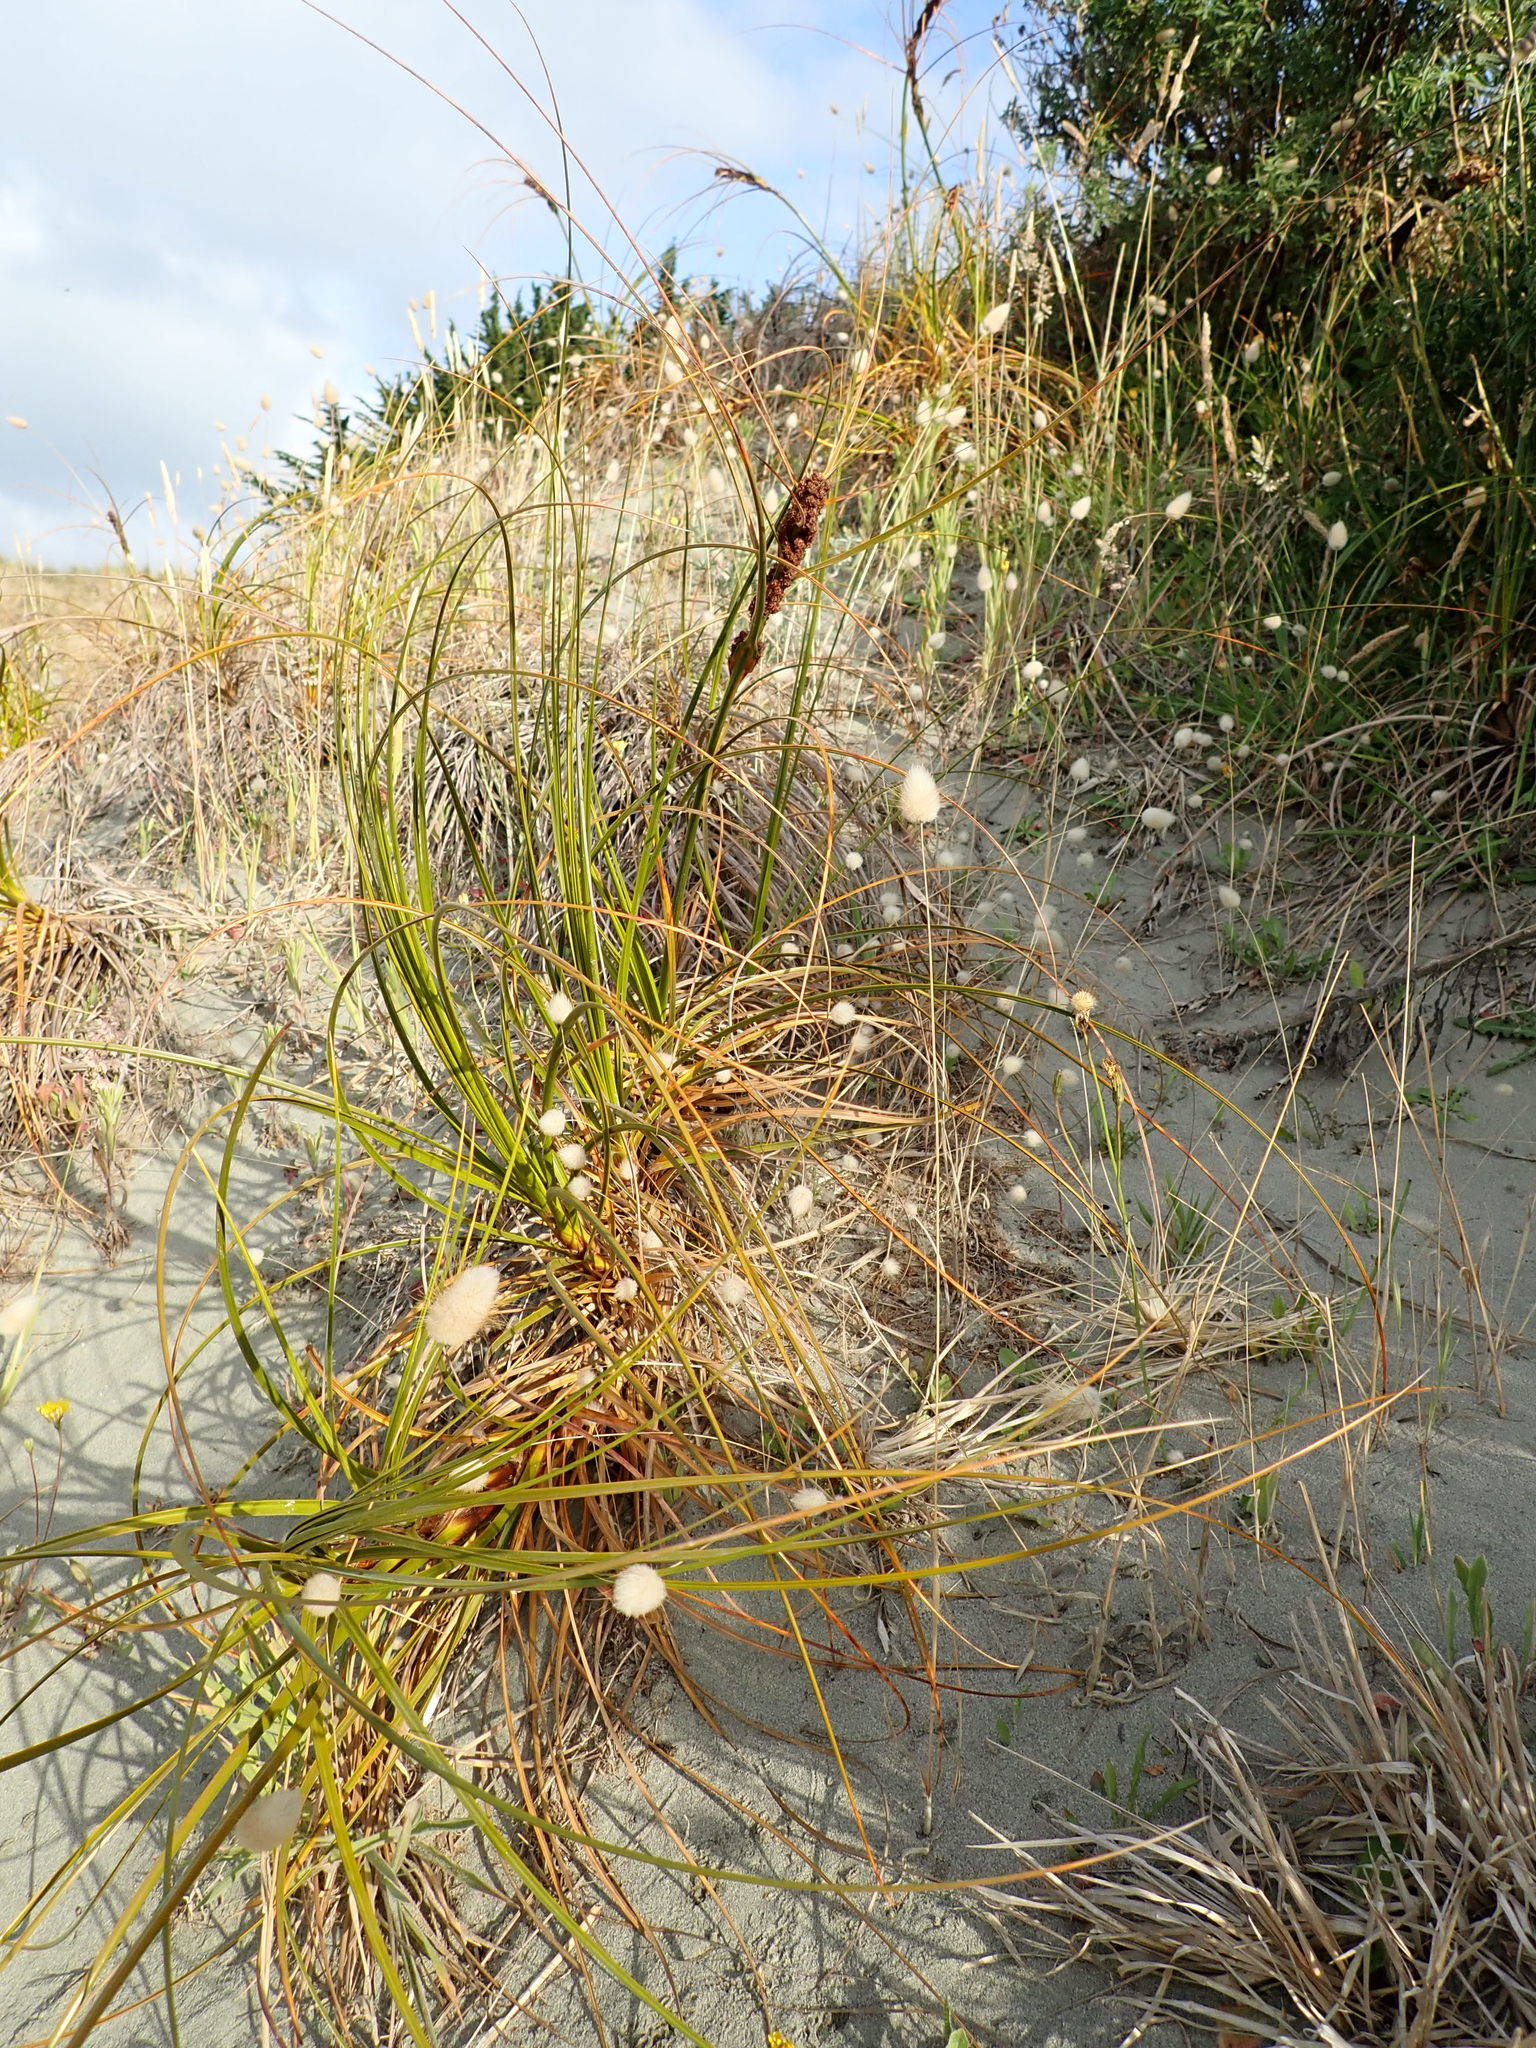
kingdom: Plantae
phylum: Tracheophyta
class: Liliopsida
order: Poales
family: Cyperaceae
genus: Ficinia
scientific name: Ficinia spiralis
